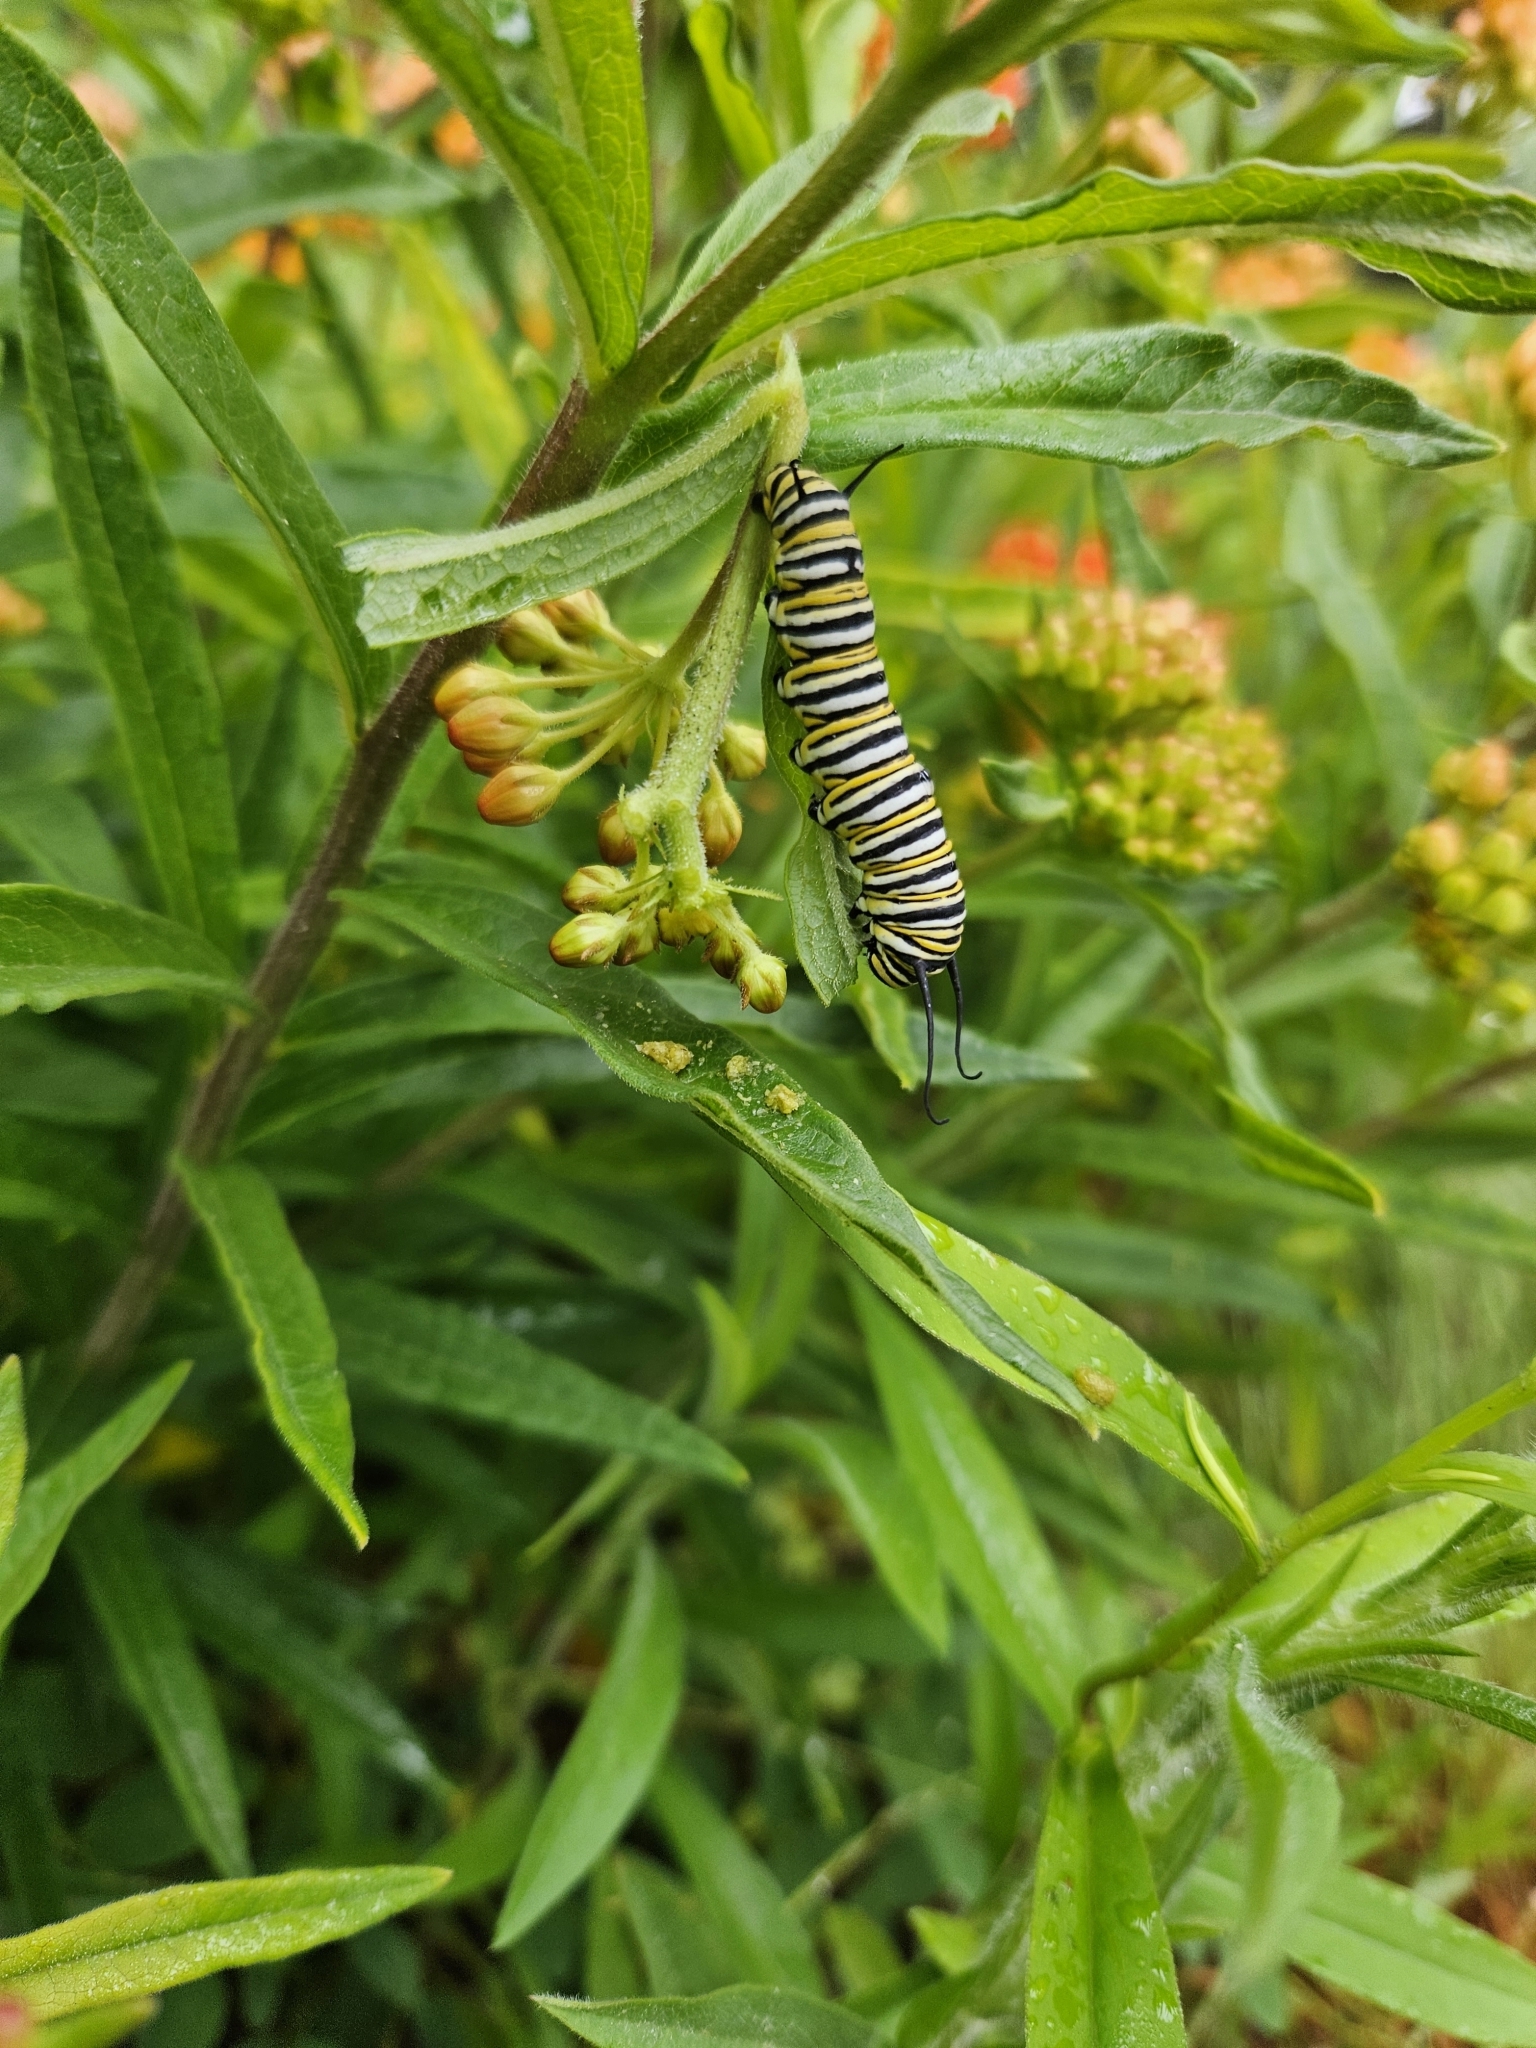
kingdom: Animalia
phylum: Arthropoda
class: Insecta
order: Lepidoptera
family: Nymphalidae
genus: Danaus
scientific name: Danaus plexippus
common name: Monarch
